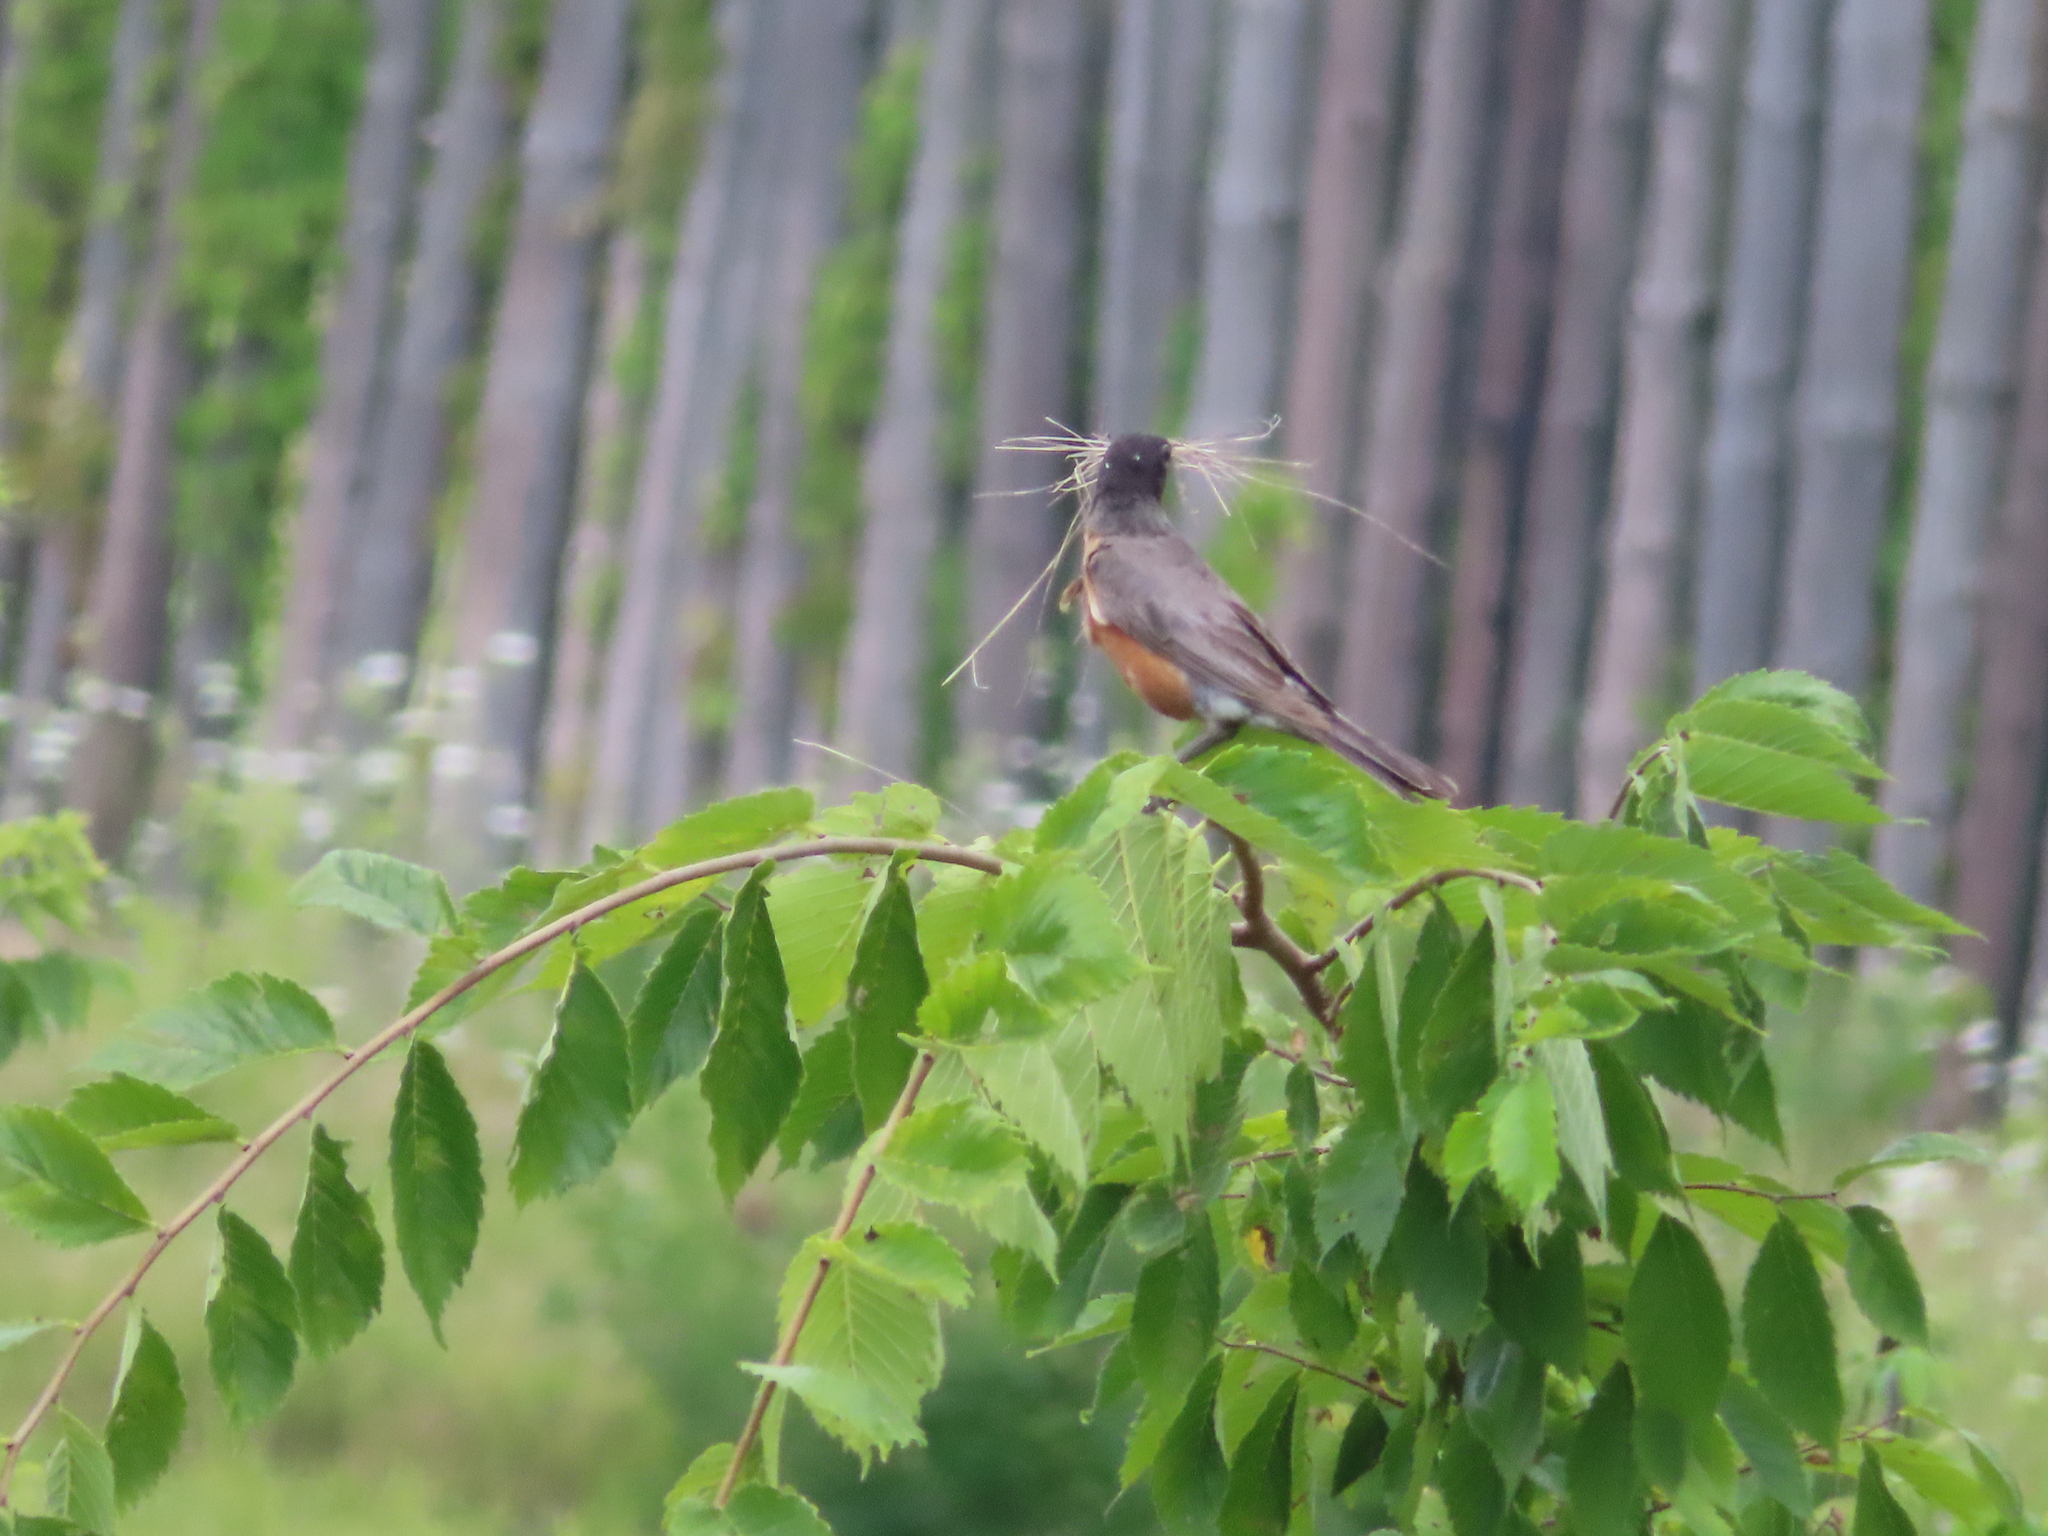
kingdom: Animalia
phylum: Chordata
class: Aves
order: Passeriformes
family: Turdidae
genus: Turdus
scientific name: Turdus migratorius
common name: American robin
